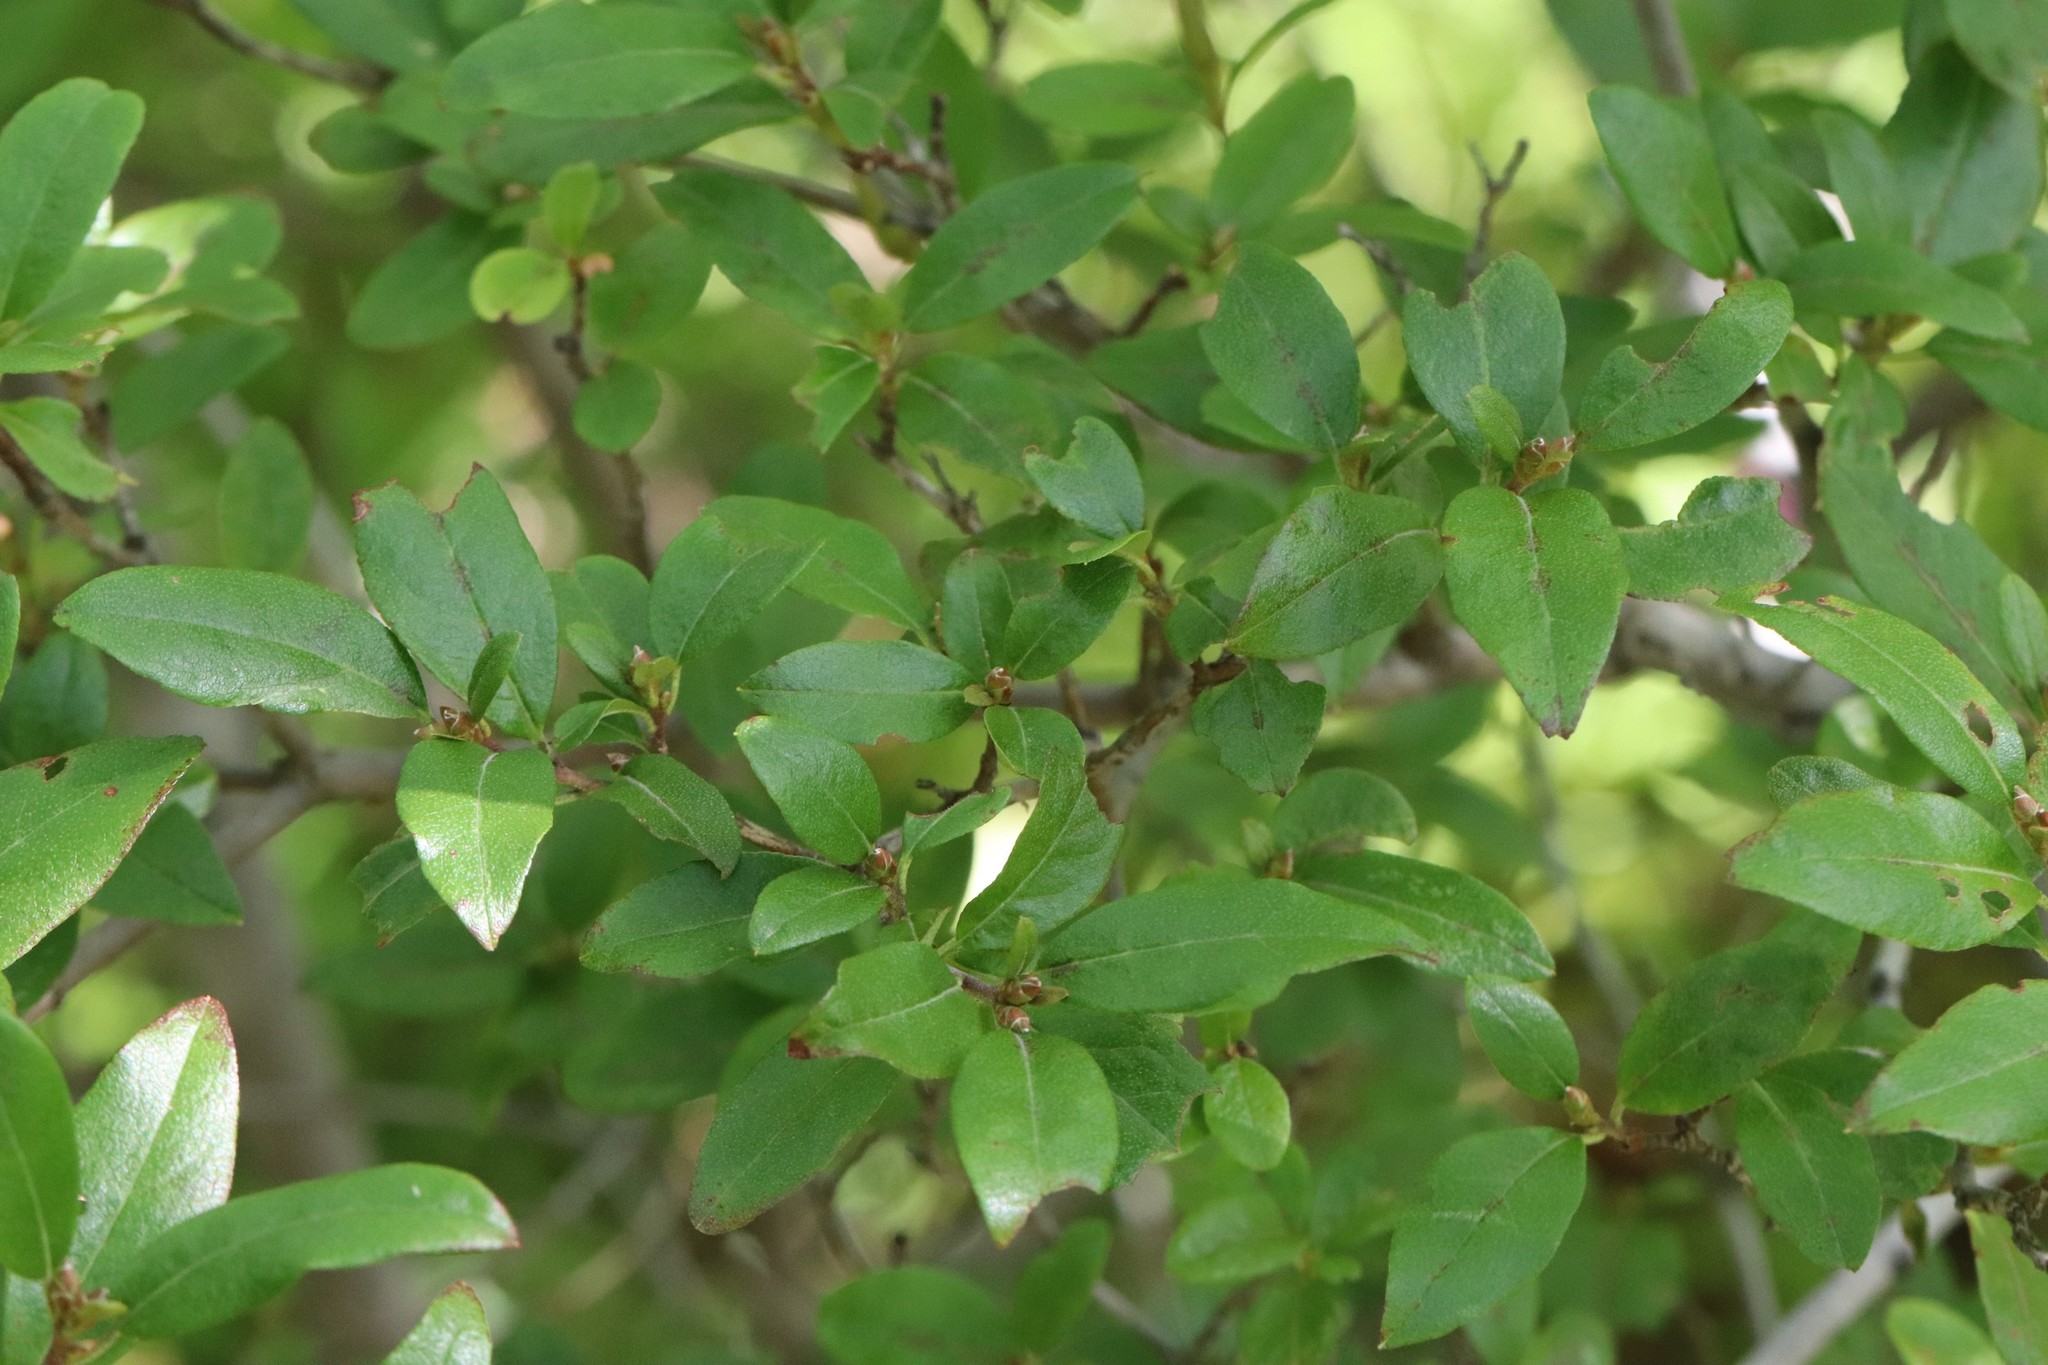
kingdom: Plantae
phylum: Tracheophyta
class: Magnoliopsida
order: Ericales
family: Ericaceae
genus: Rhododendron
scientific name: Rhododendron mucronulatum
